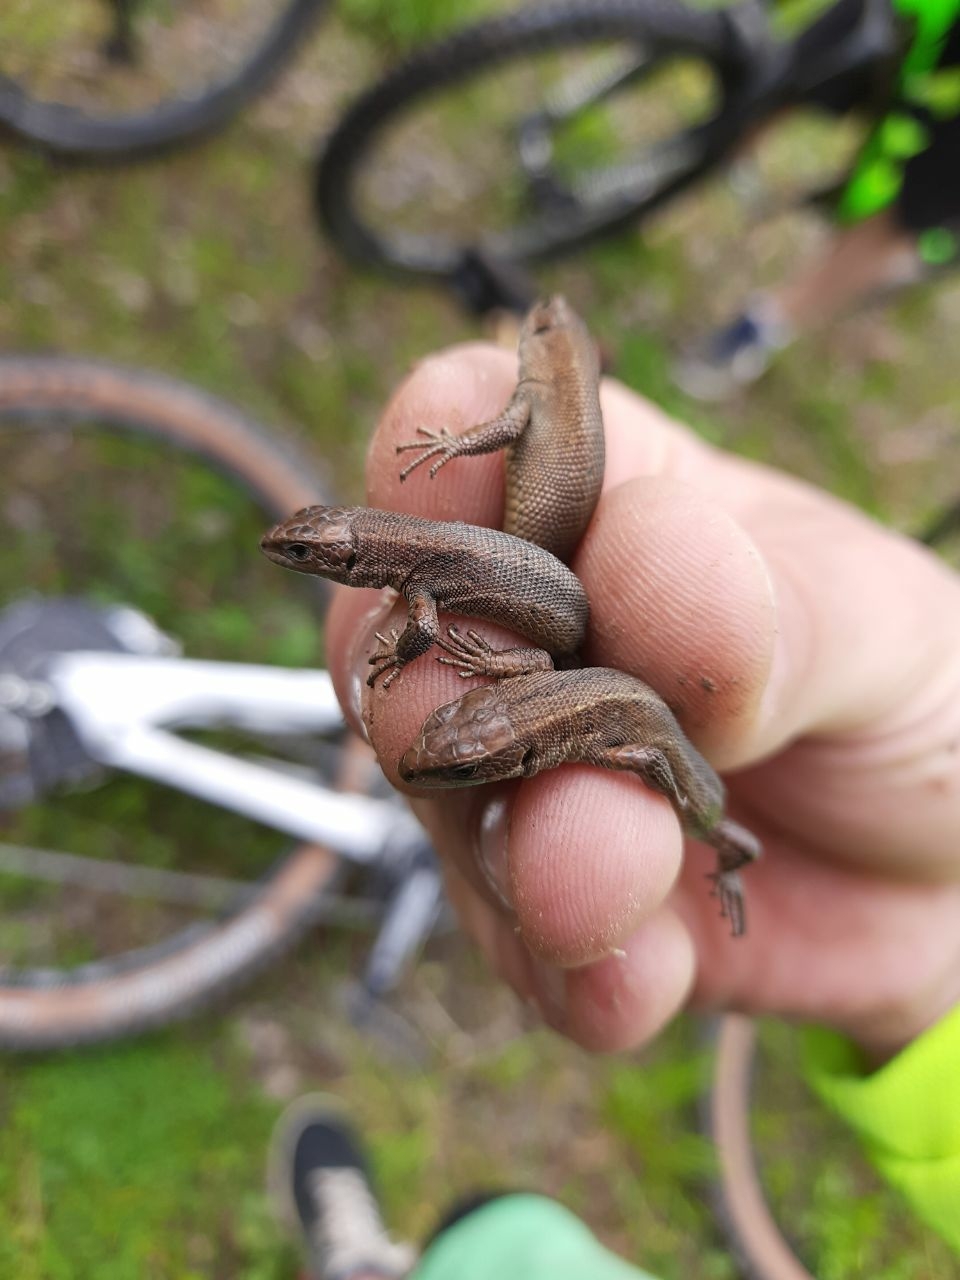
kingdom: Animalia
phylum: Chordata
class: Squamata
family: Lacertidae
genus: Zootoca
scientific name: Zootoca vivipara
